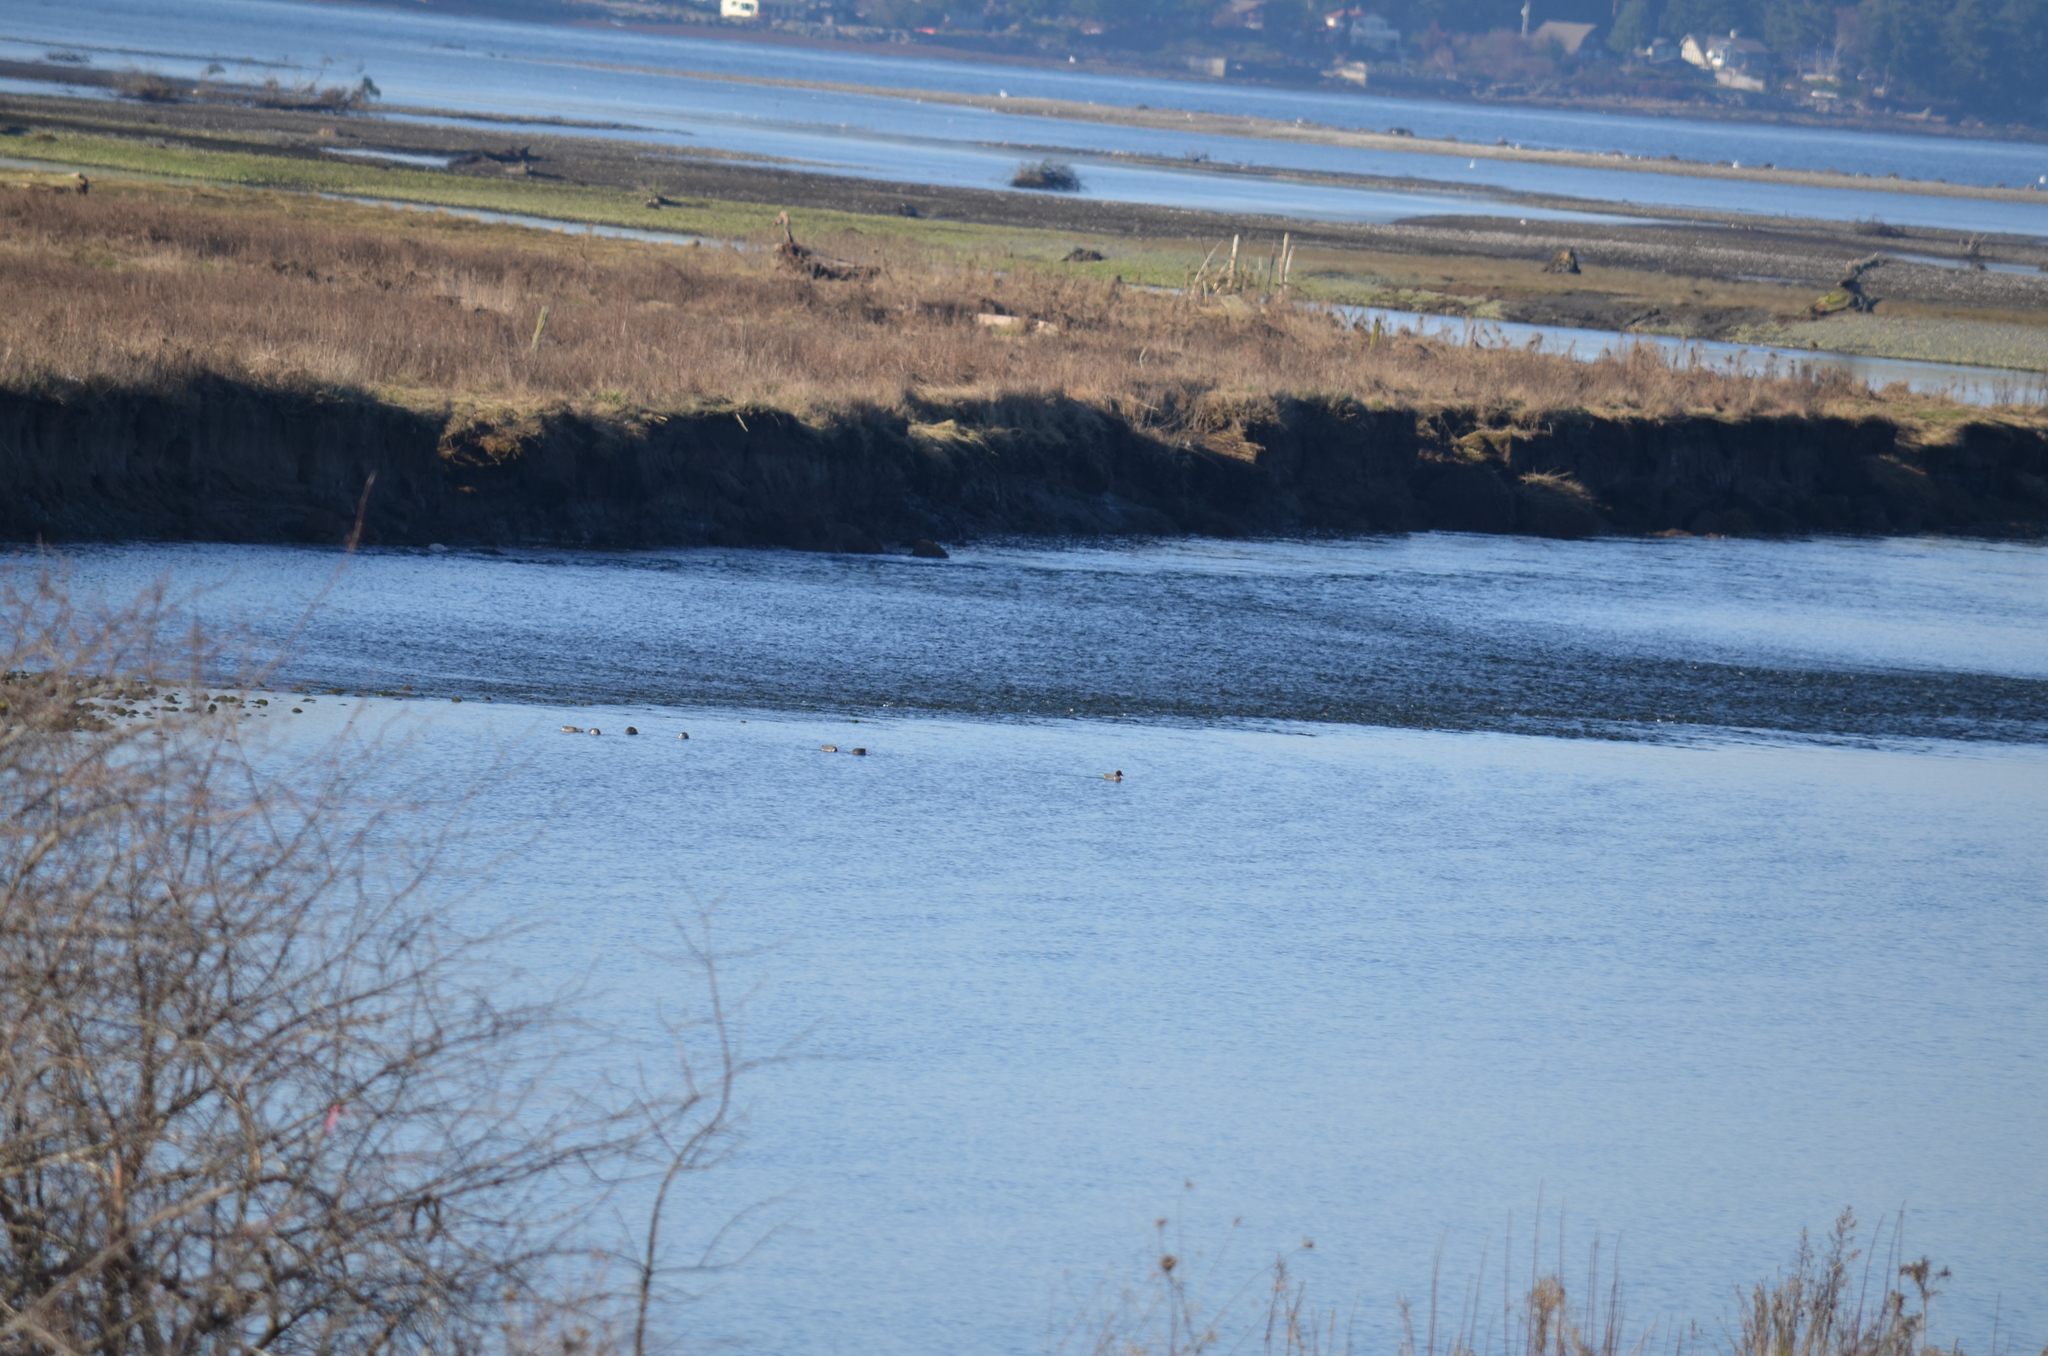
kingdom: Animalia
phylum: Chordata
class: Aves
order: Anseriformes
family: Anatidae
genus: Anas
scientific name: Anas crecca
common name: Eurasian teal
